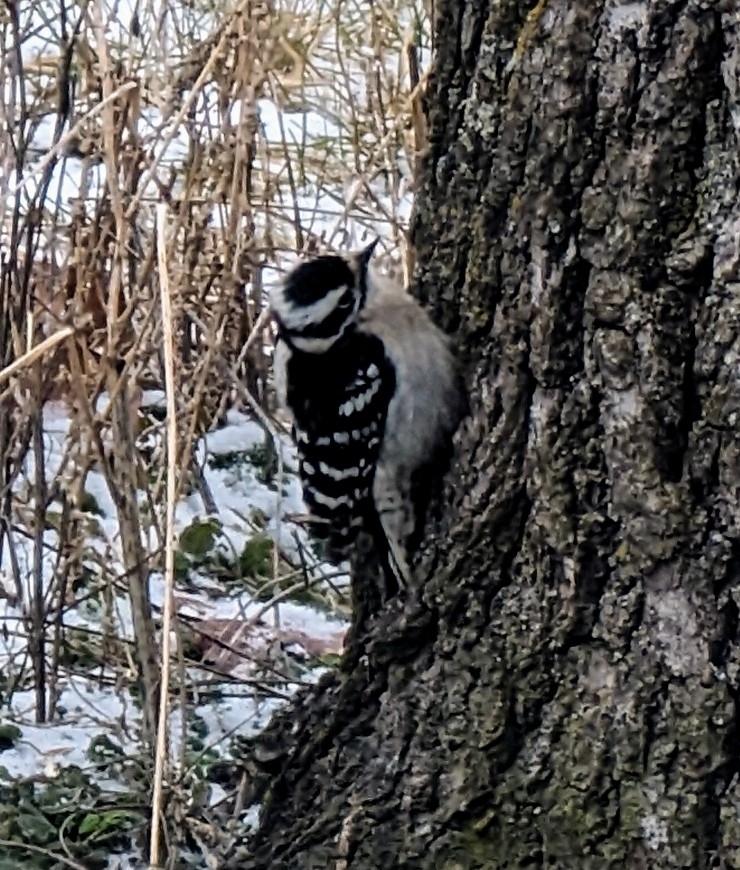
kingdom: Animalia
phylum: Chordata
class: Aves
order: Piciformes
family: Picidae
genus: Dryobates
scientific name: Dryobates pubescens
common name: Downy woodpecker
